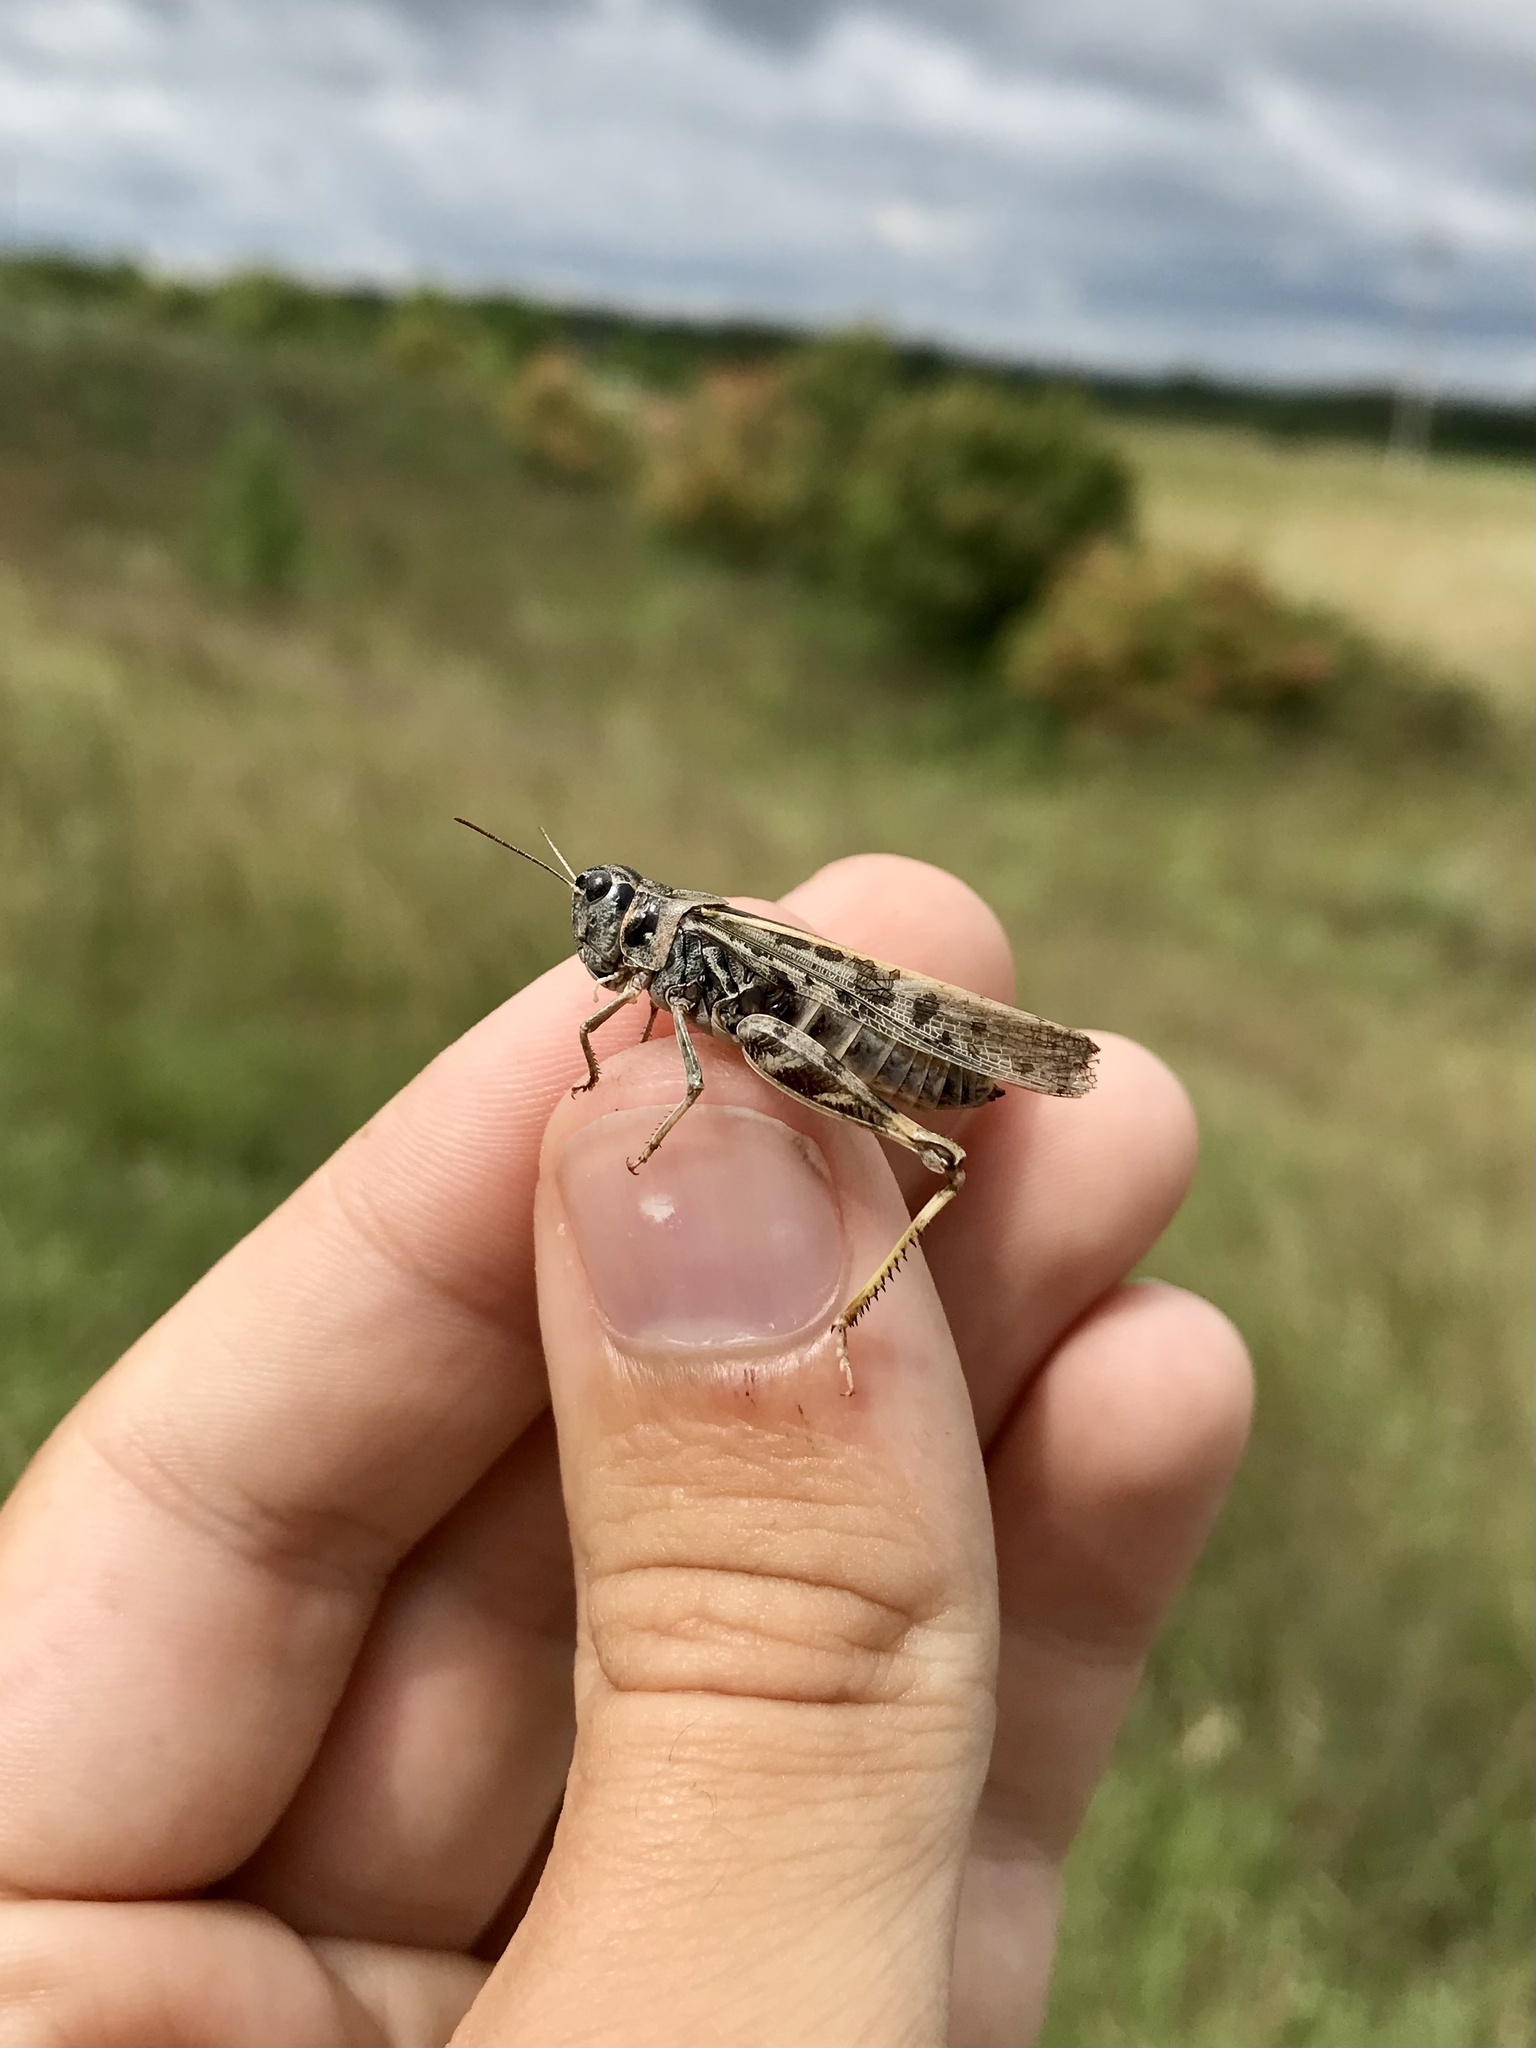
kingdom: Animalia
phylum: Arthropoda
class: Insecta
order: Orthoptera
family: Acrididae
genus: Camnula
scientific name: Camnula pellucida
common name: Clear-winged grasshopper
